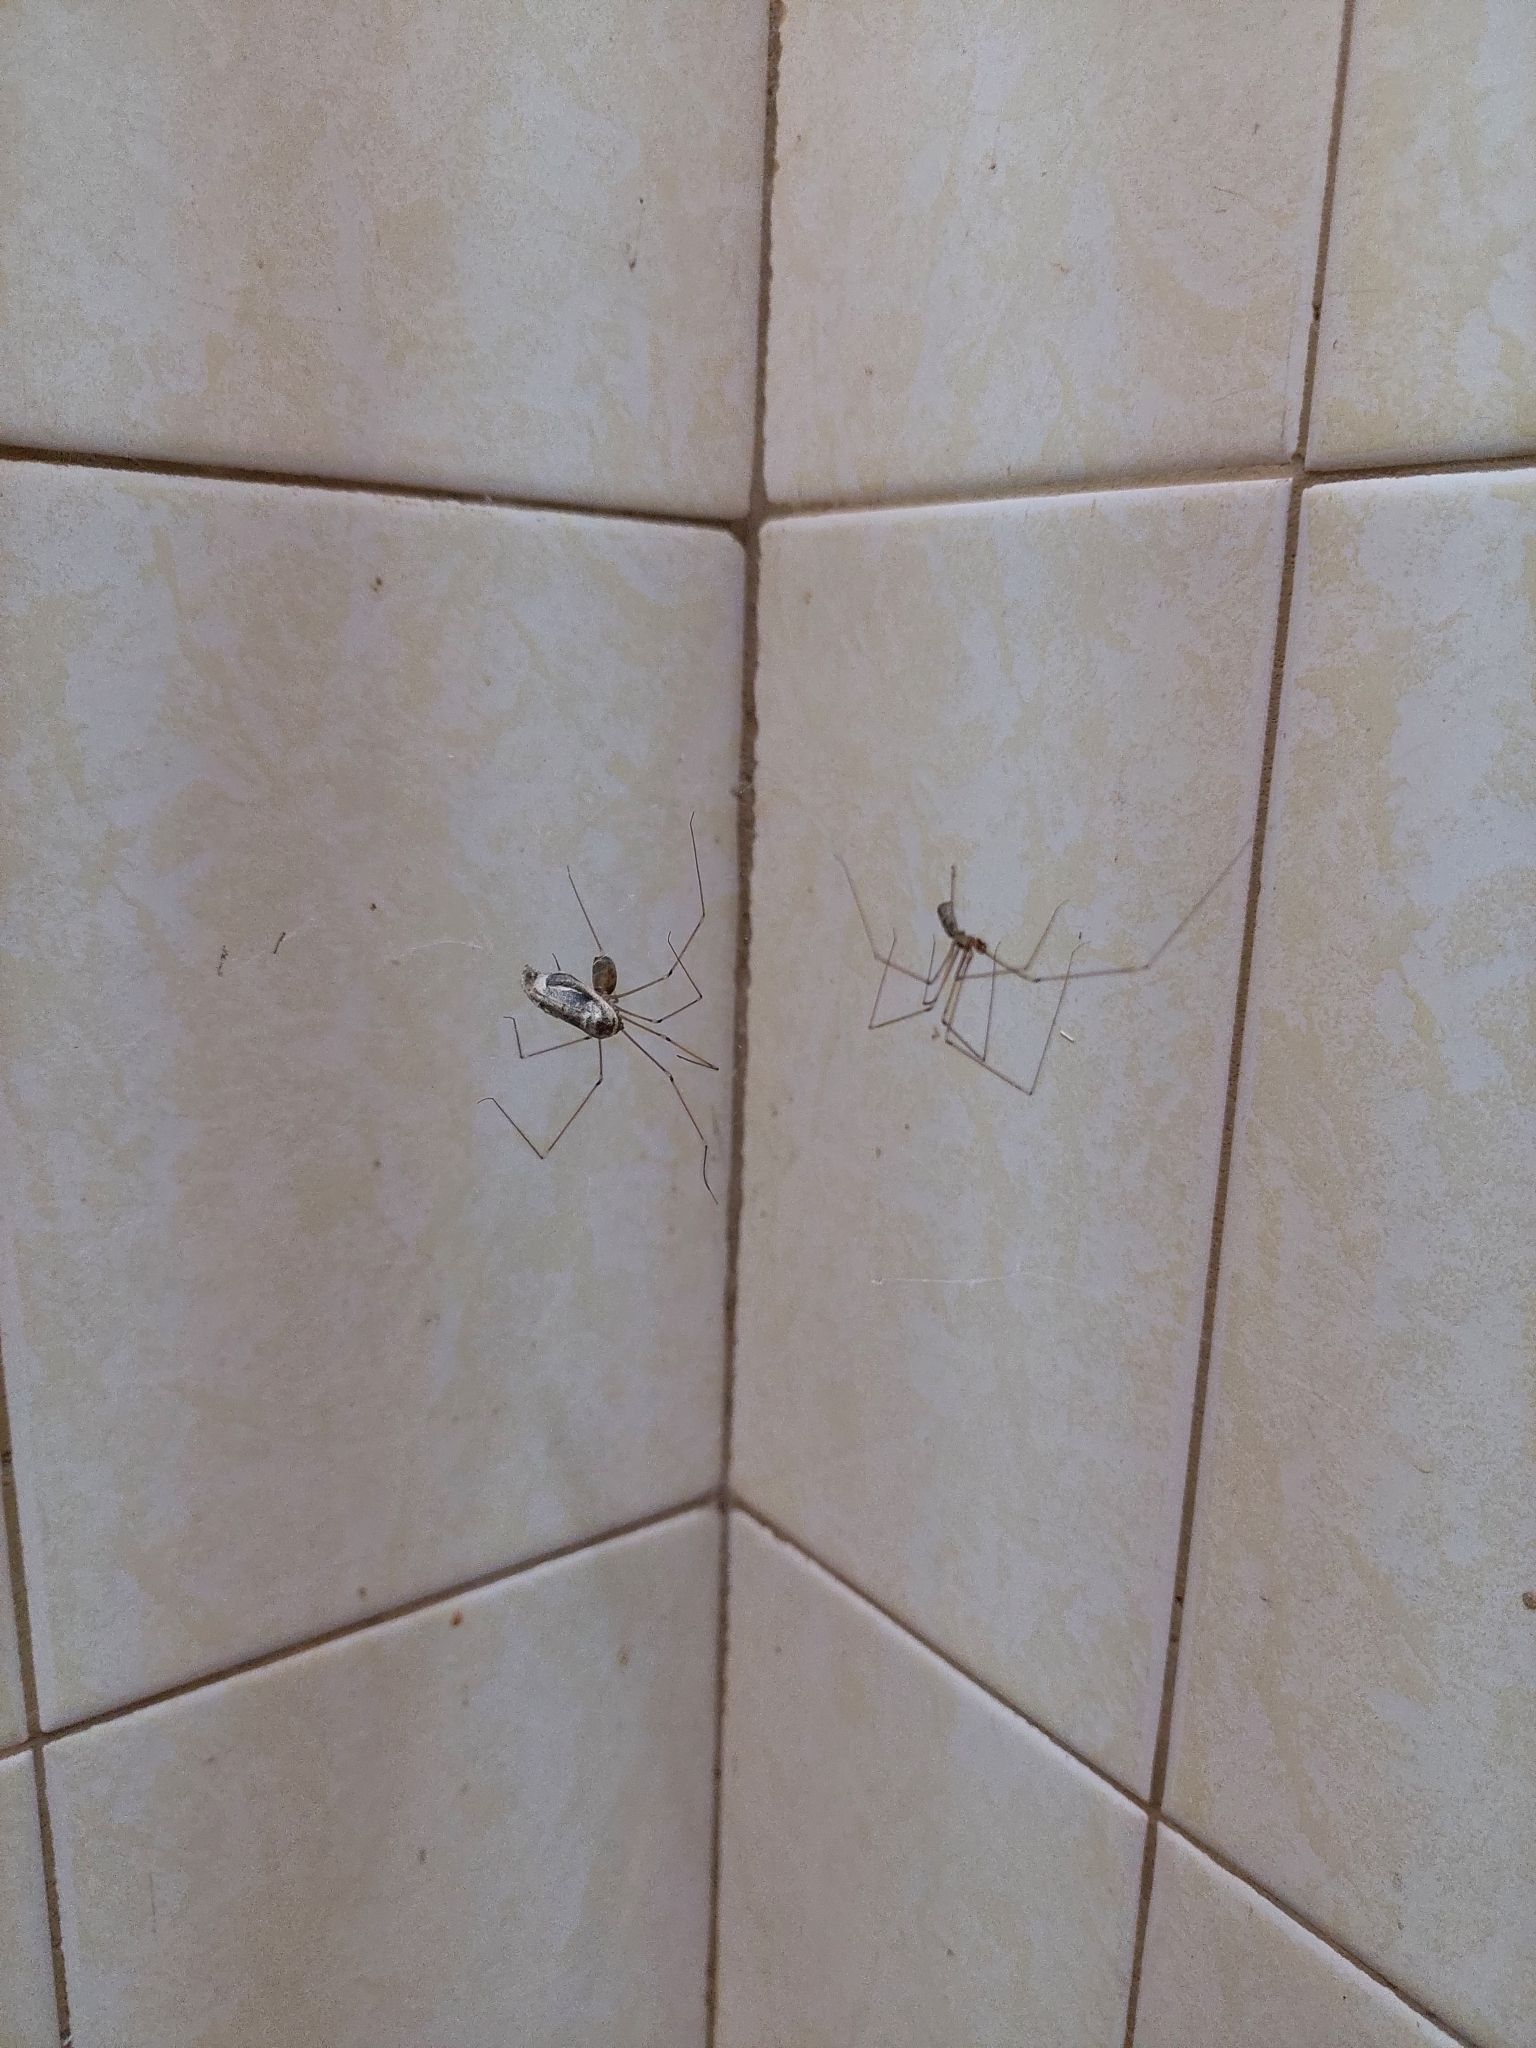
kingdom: Animalia
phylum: Arthropoda
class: Arachnida
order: Araneae
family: Pholcidae
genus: Pholcus
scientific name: Pholcus phalangioides
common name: Longbodied cellar spider
